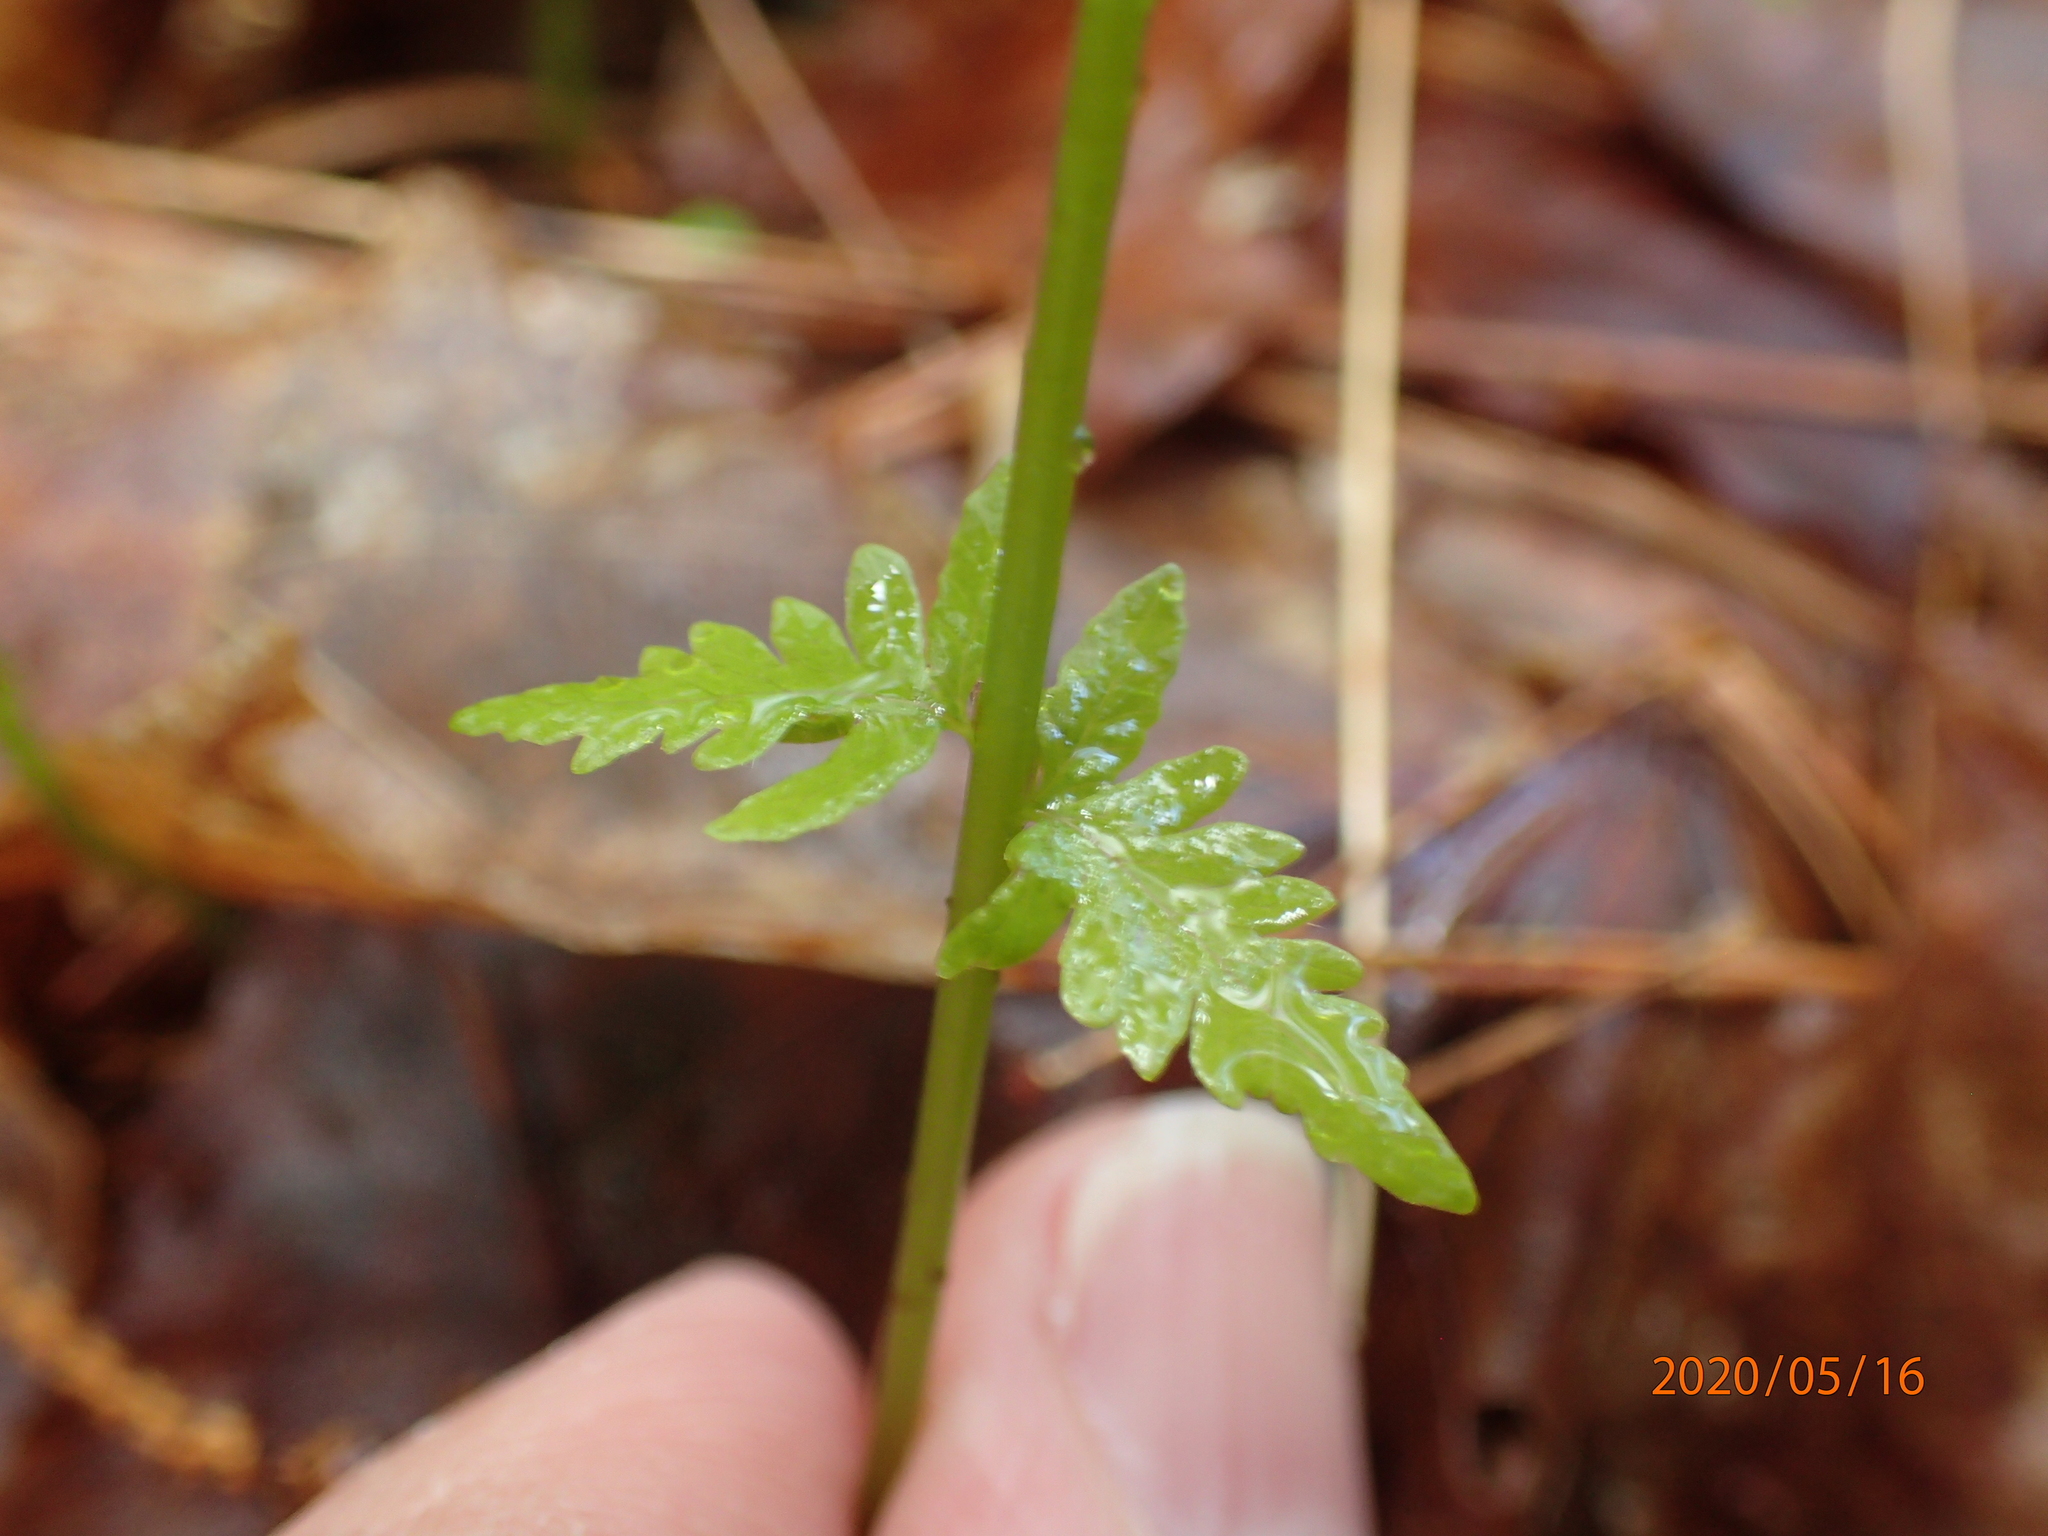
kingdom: Plantae
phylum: Tracheophyta
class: Polypodiopsida
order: Polypodiales
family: Thelypteridaceae
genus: Amauropelta
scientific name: Amauropelta noveboracensis
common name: New york fern
